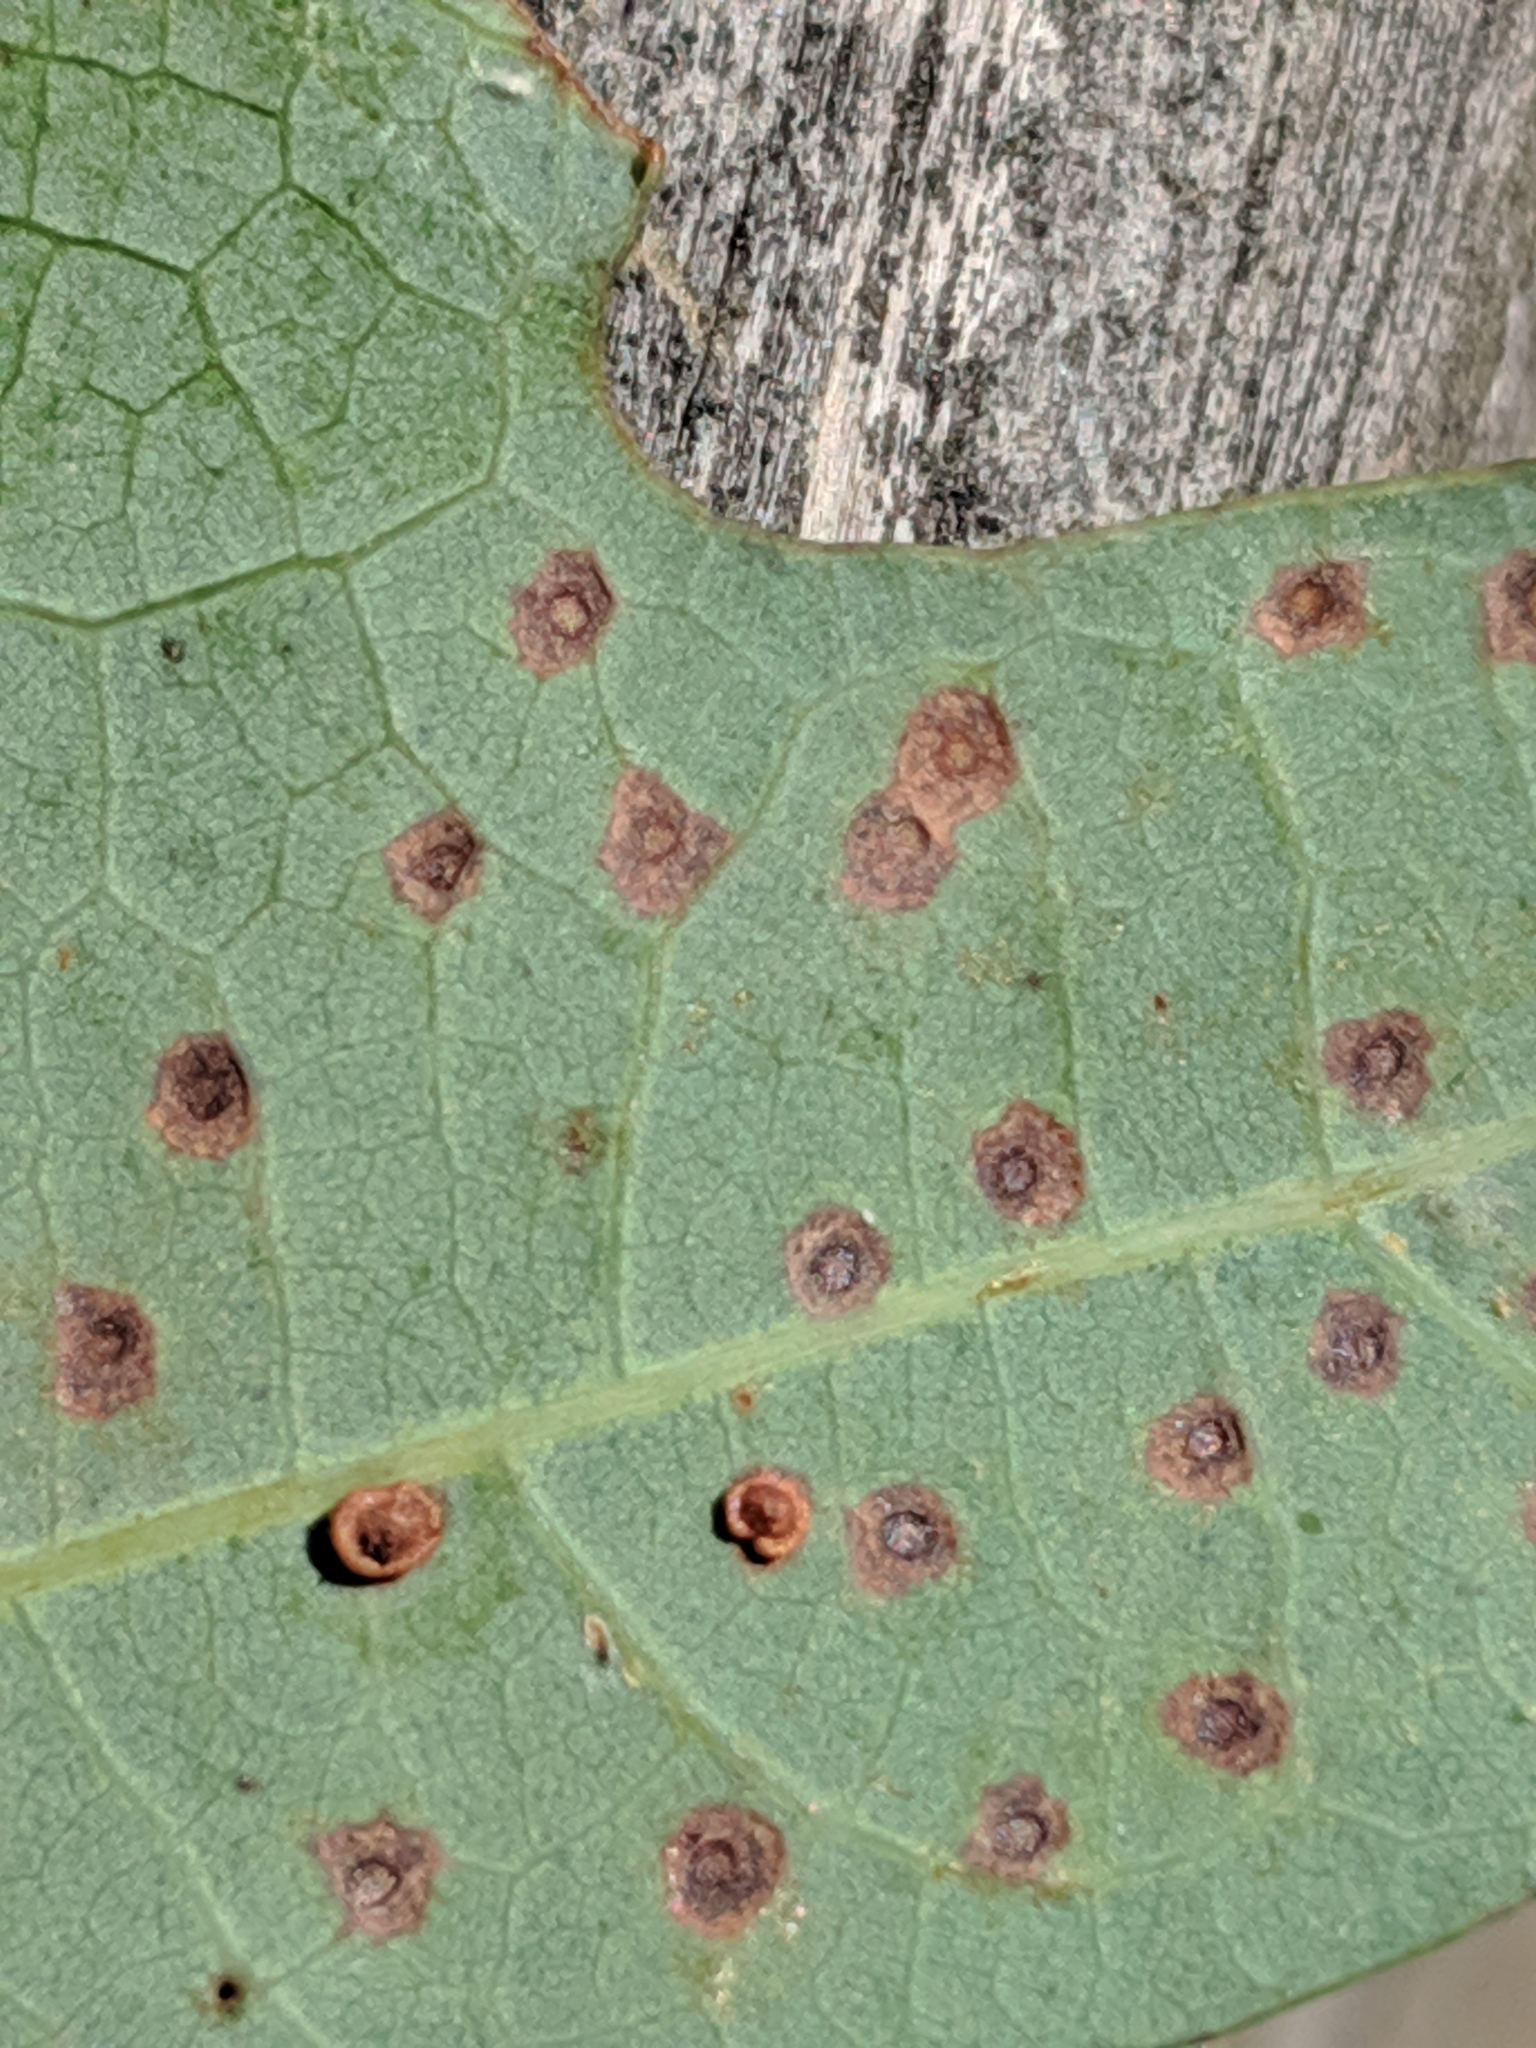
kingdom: Animalia
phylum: Arthropoda
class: Insecta
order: Hymenoptera
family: Cynipidae
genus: Neuroterus
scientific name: Neuroterus
